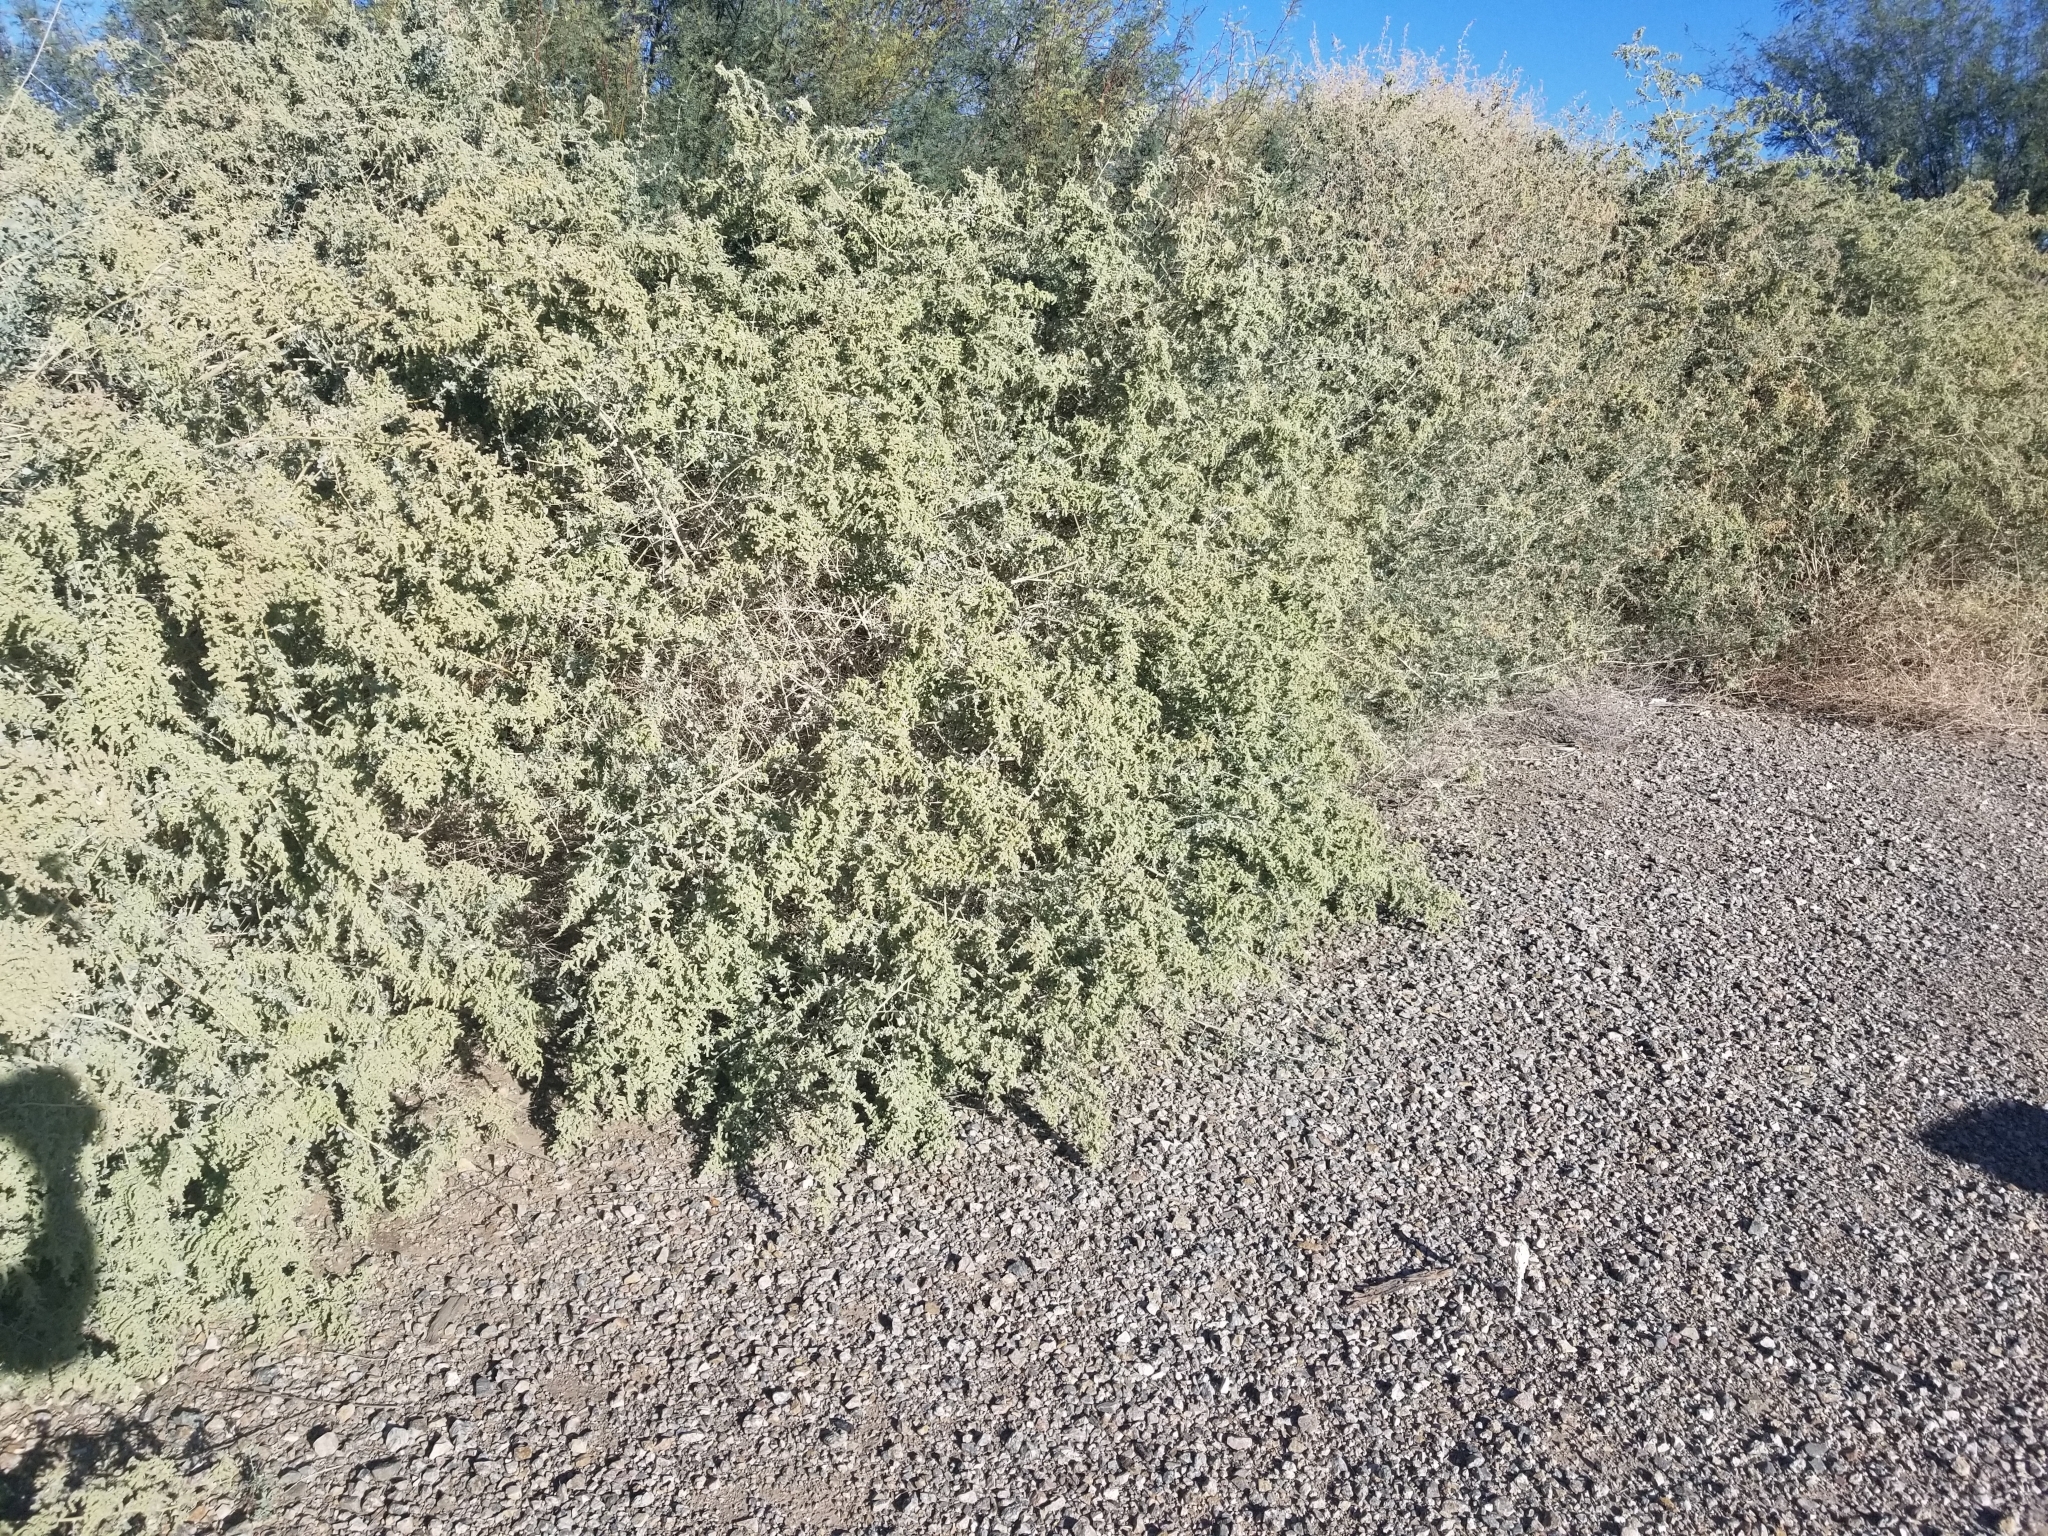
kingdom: Fungi
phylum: Basidiomycota
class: Agaricomycetes
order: Agaricales
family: Agaricaceae
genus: Podaxis
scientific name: Podaxis pistillaris
